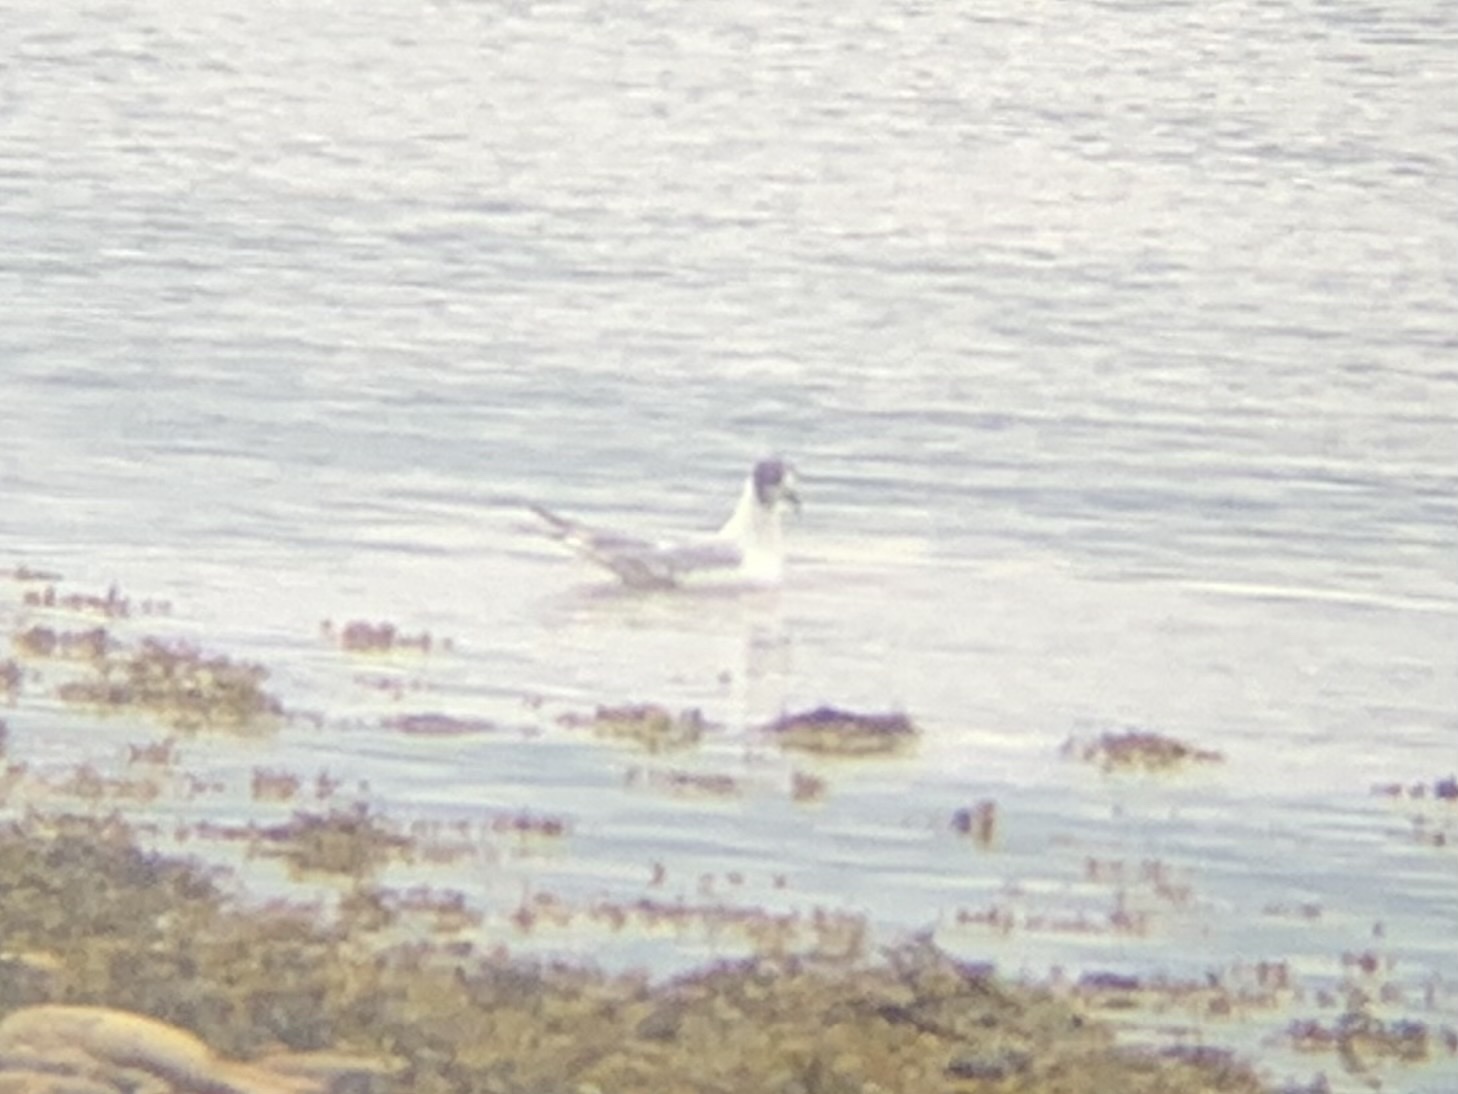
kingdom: Animalia
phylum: Chordata
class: Aves
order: Charadriiformes
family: Laridae
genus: Chroicocephalus
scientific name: Chroicocephalus philadelphia
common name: Bonaparte's gull
